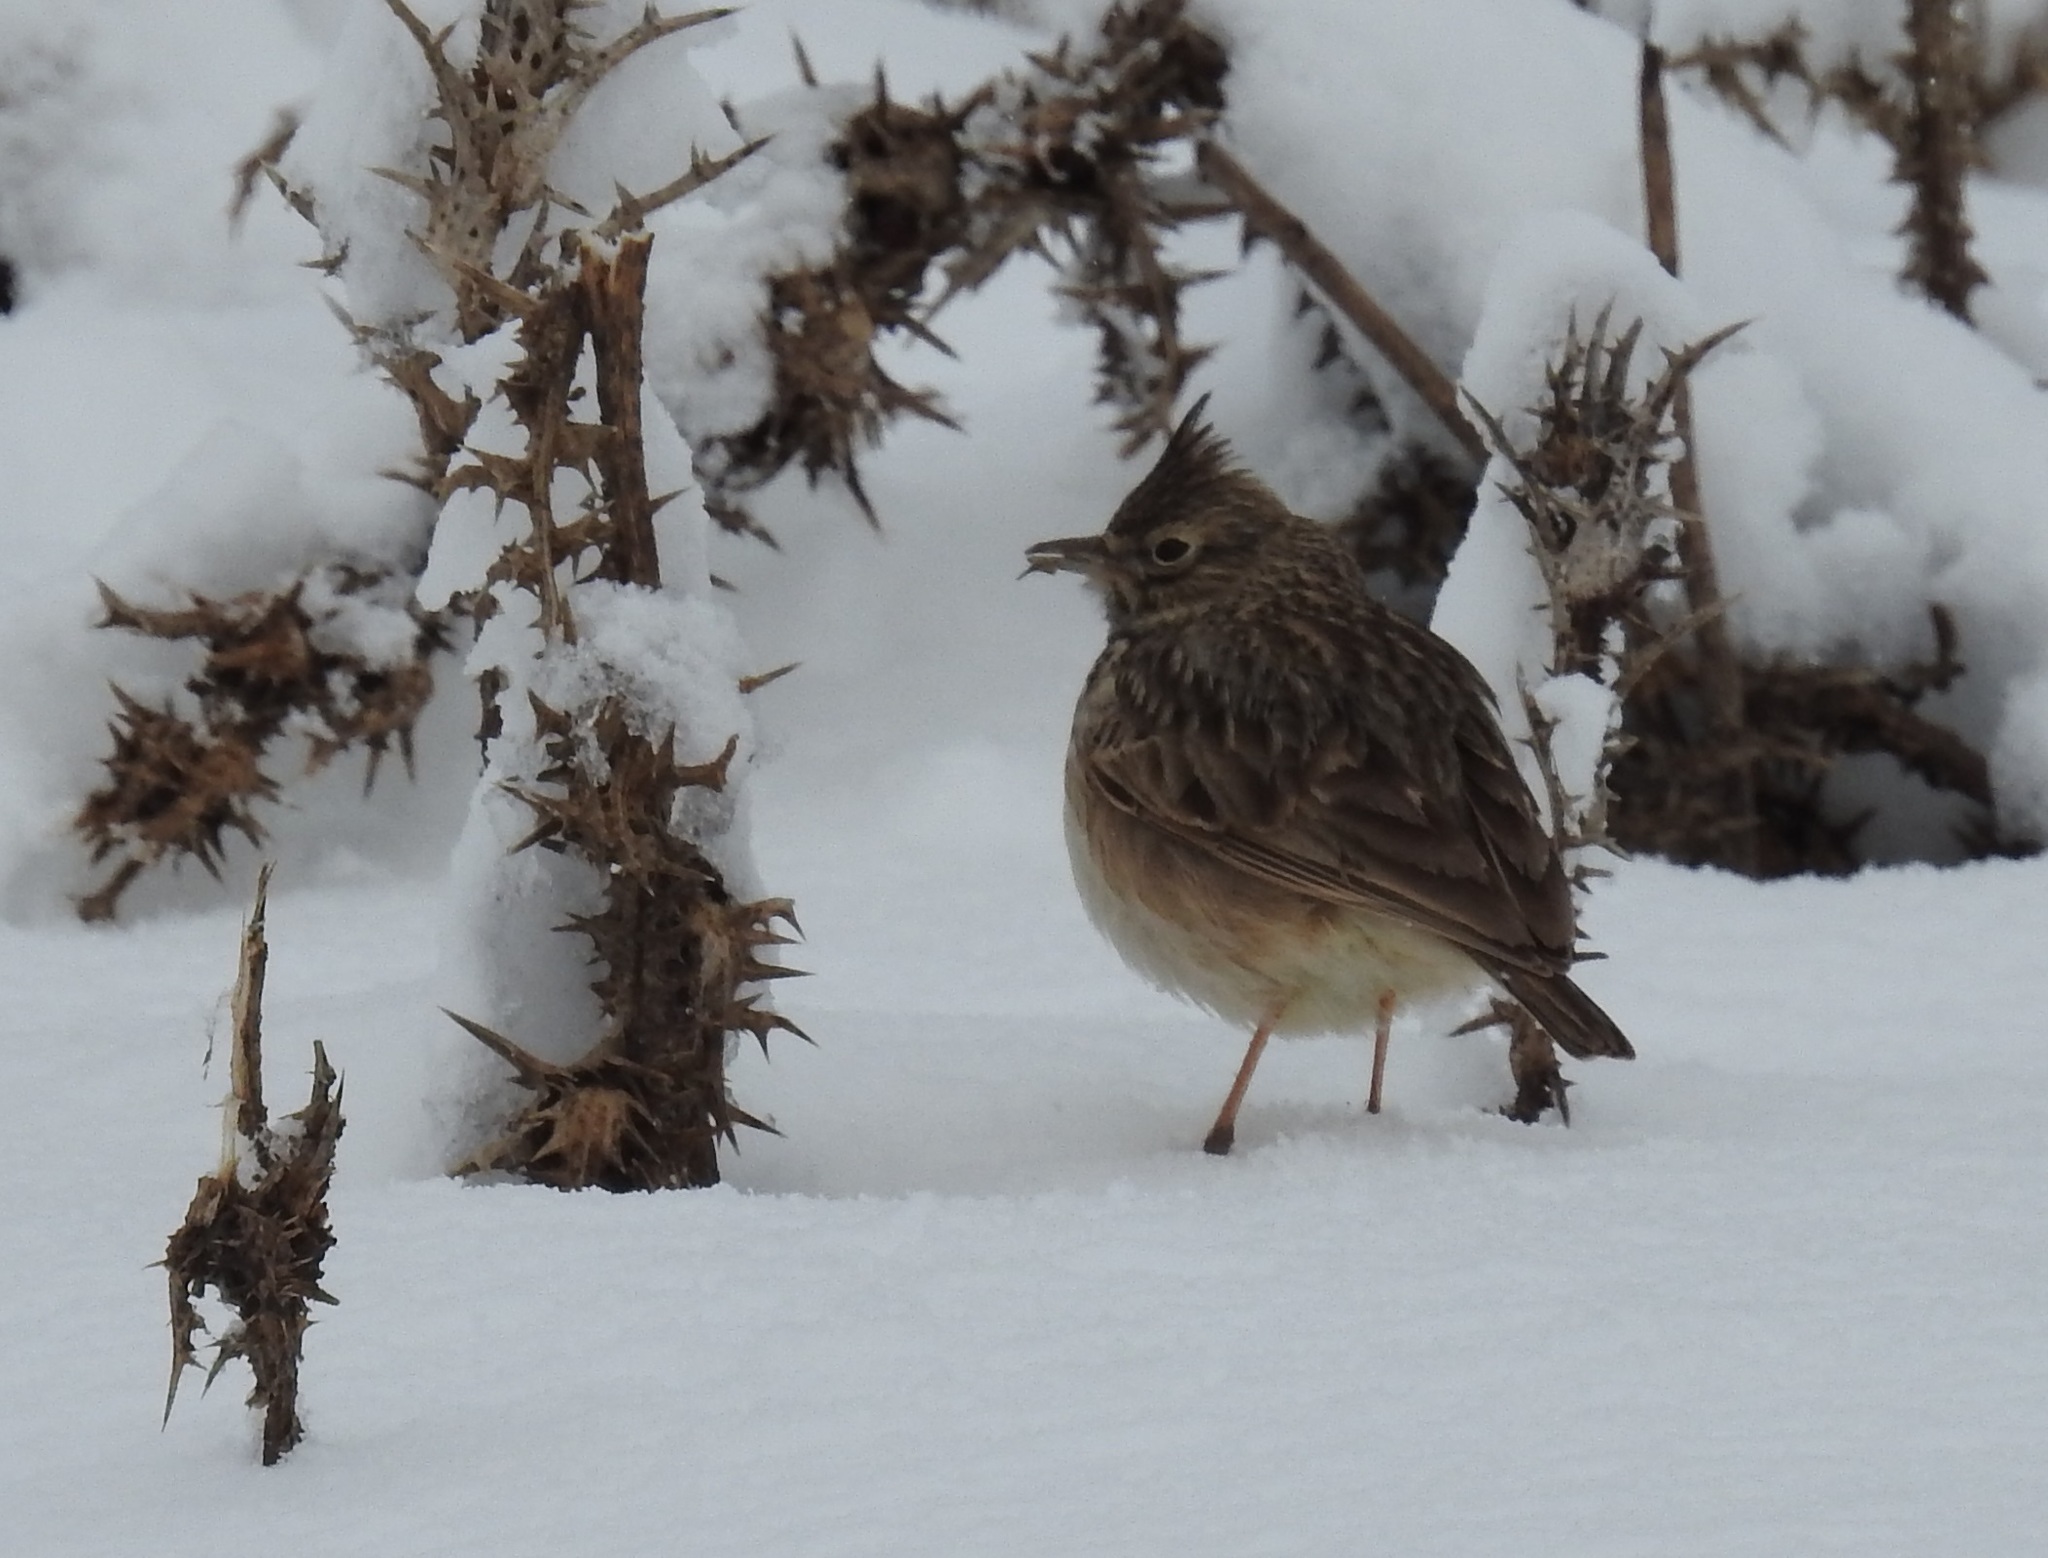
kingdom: Animalia
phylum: Chordata
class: Aves
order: Passeriformes
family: Alaudidae
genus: Galerida
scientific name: Galerida theklae
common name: Thekla lark
